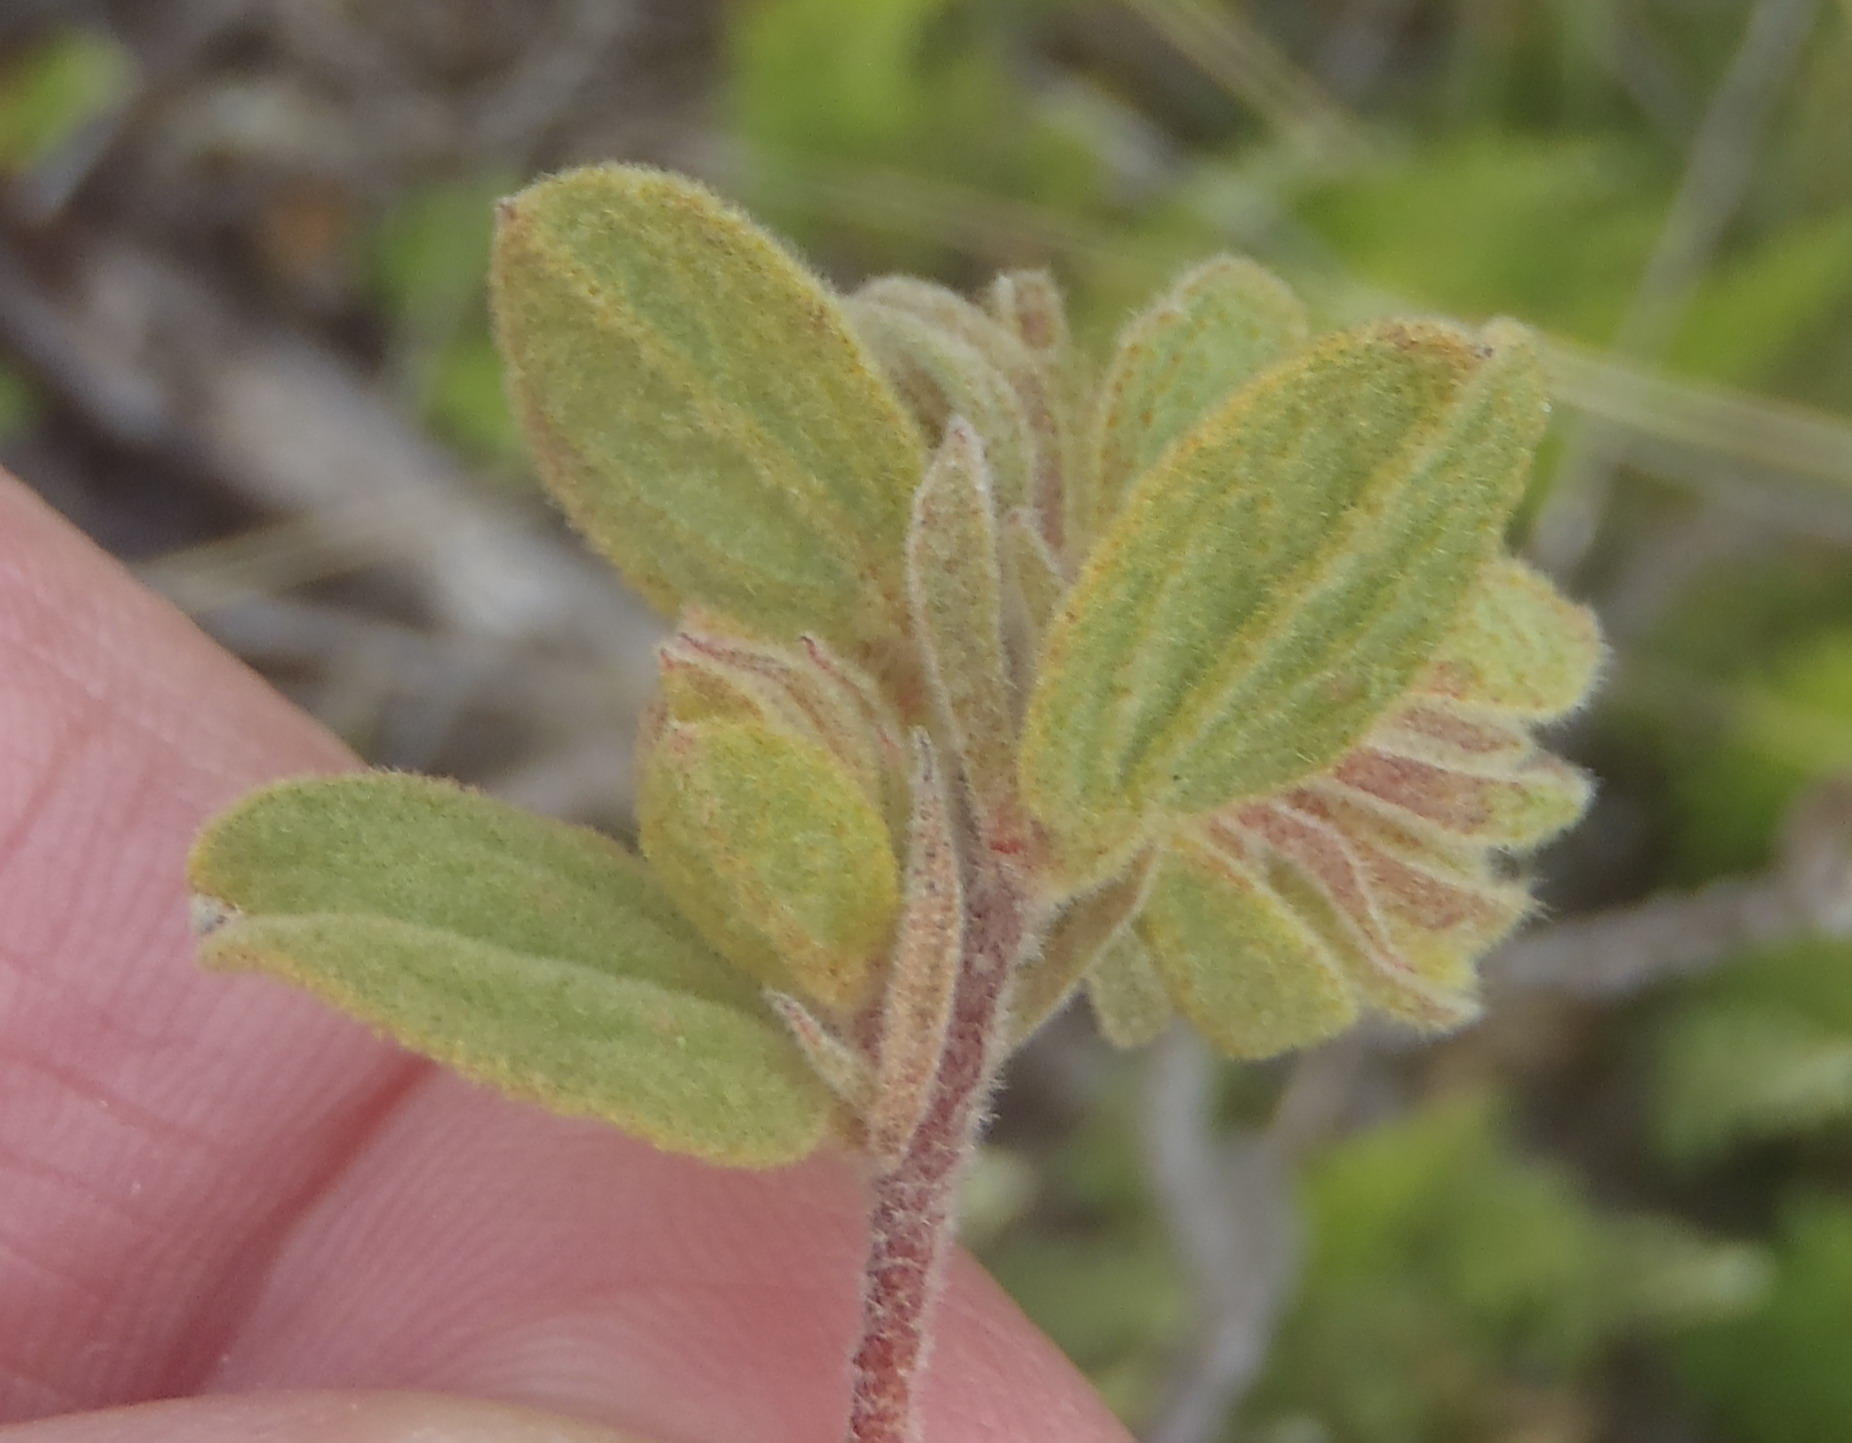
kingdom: Plantae
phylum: Tracheophyta
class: Magnoliopsida
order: Malvales
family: Malvaceae
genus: Hermannia
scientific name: Hermannia salviifolia
